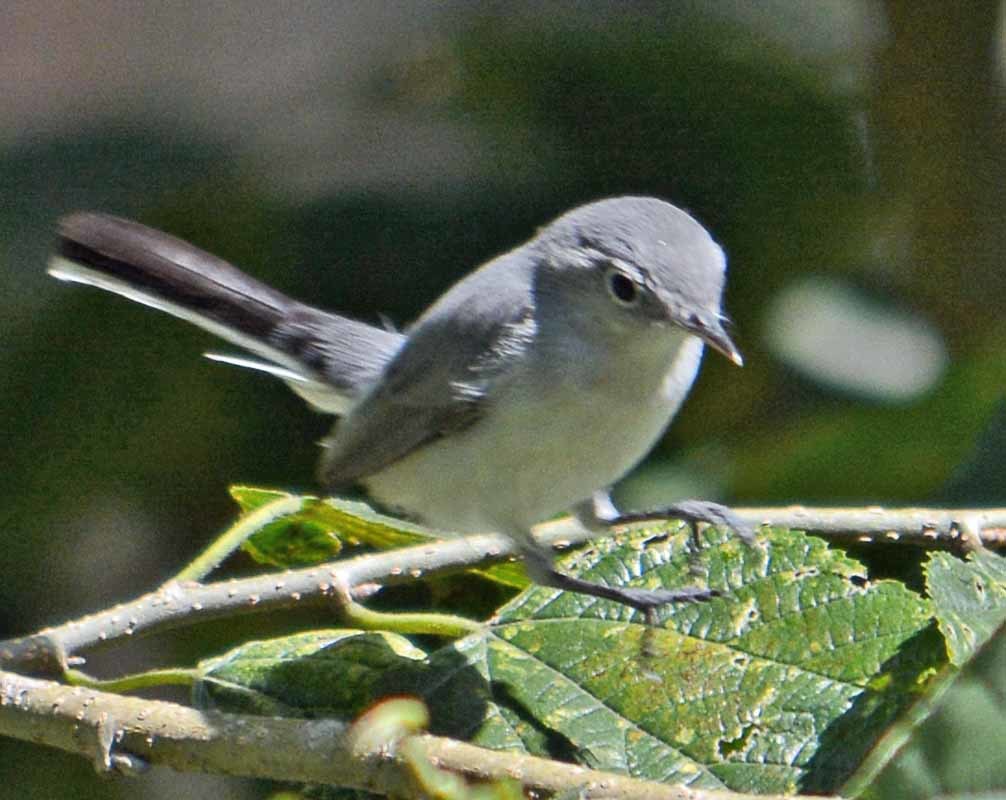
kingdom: Animalia
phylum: Chordata
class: Aves
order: Passeriformes
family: Polioptilidae
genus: Polioptila
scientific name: Polioptila caerulea
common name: Blue-gray gnatcatcher
